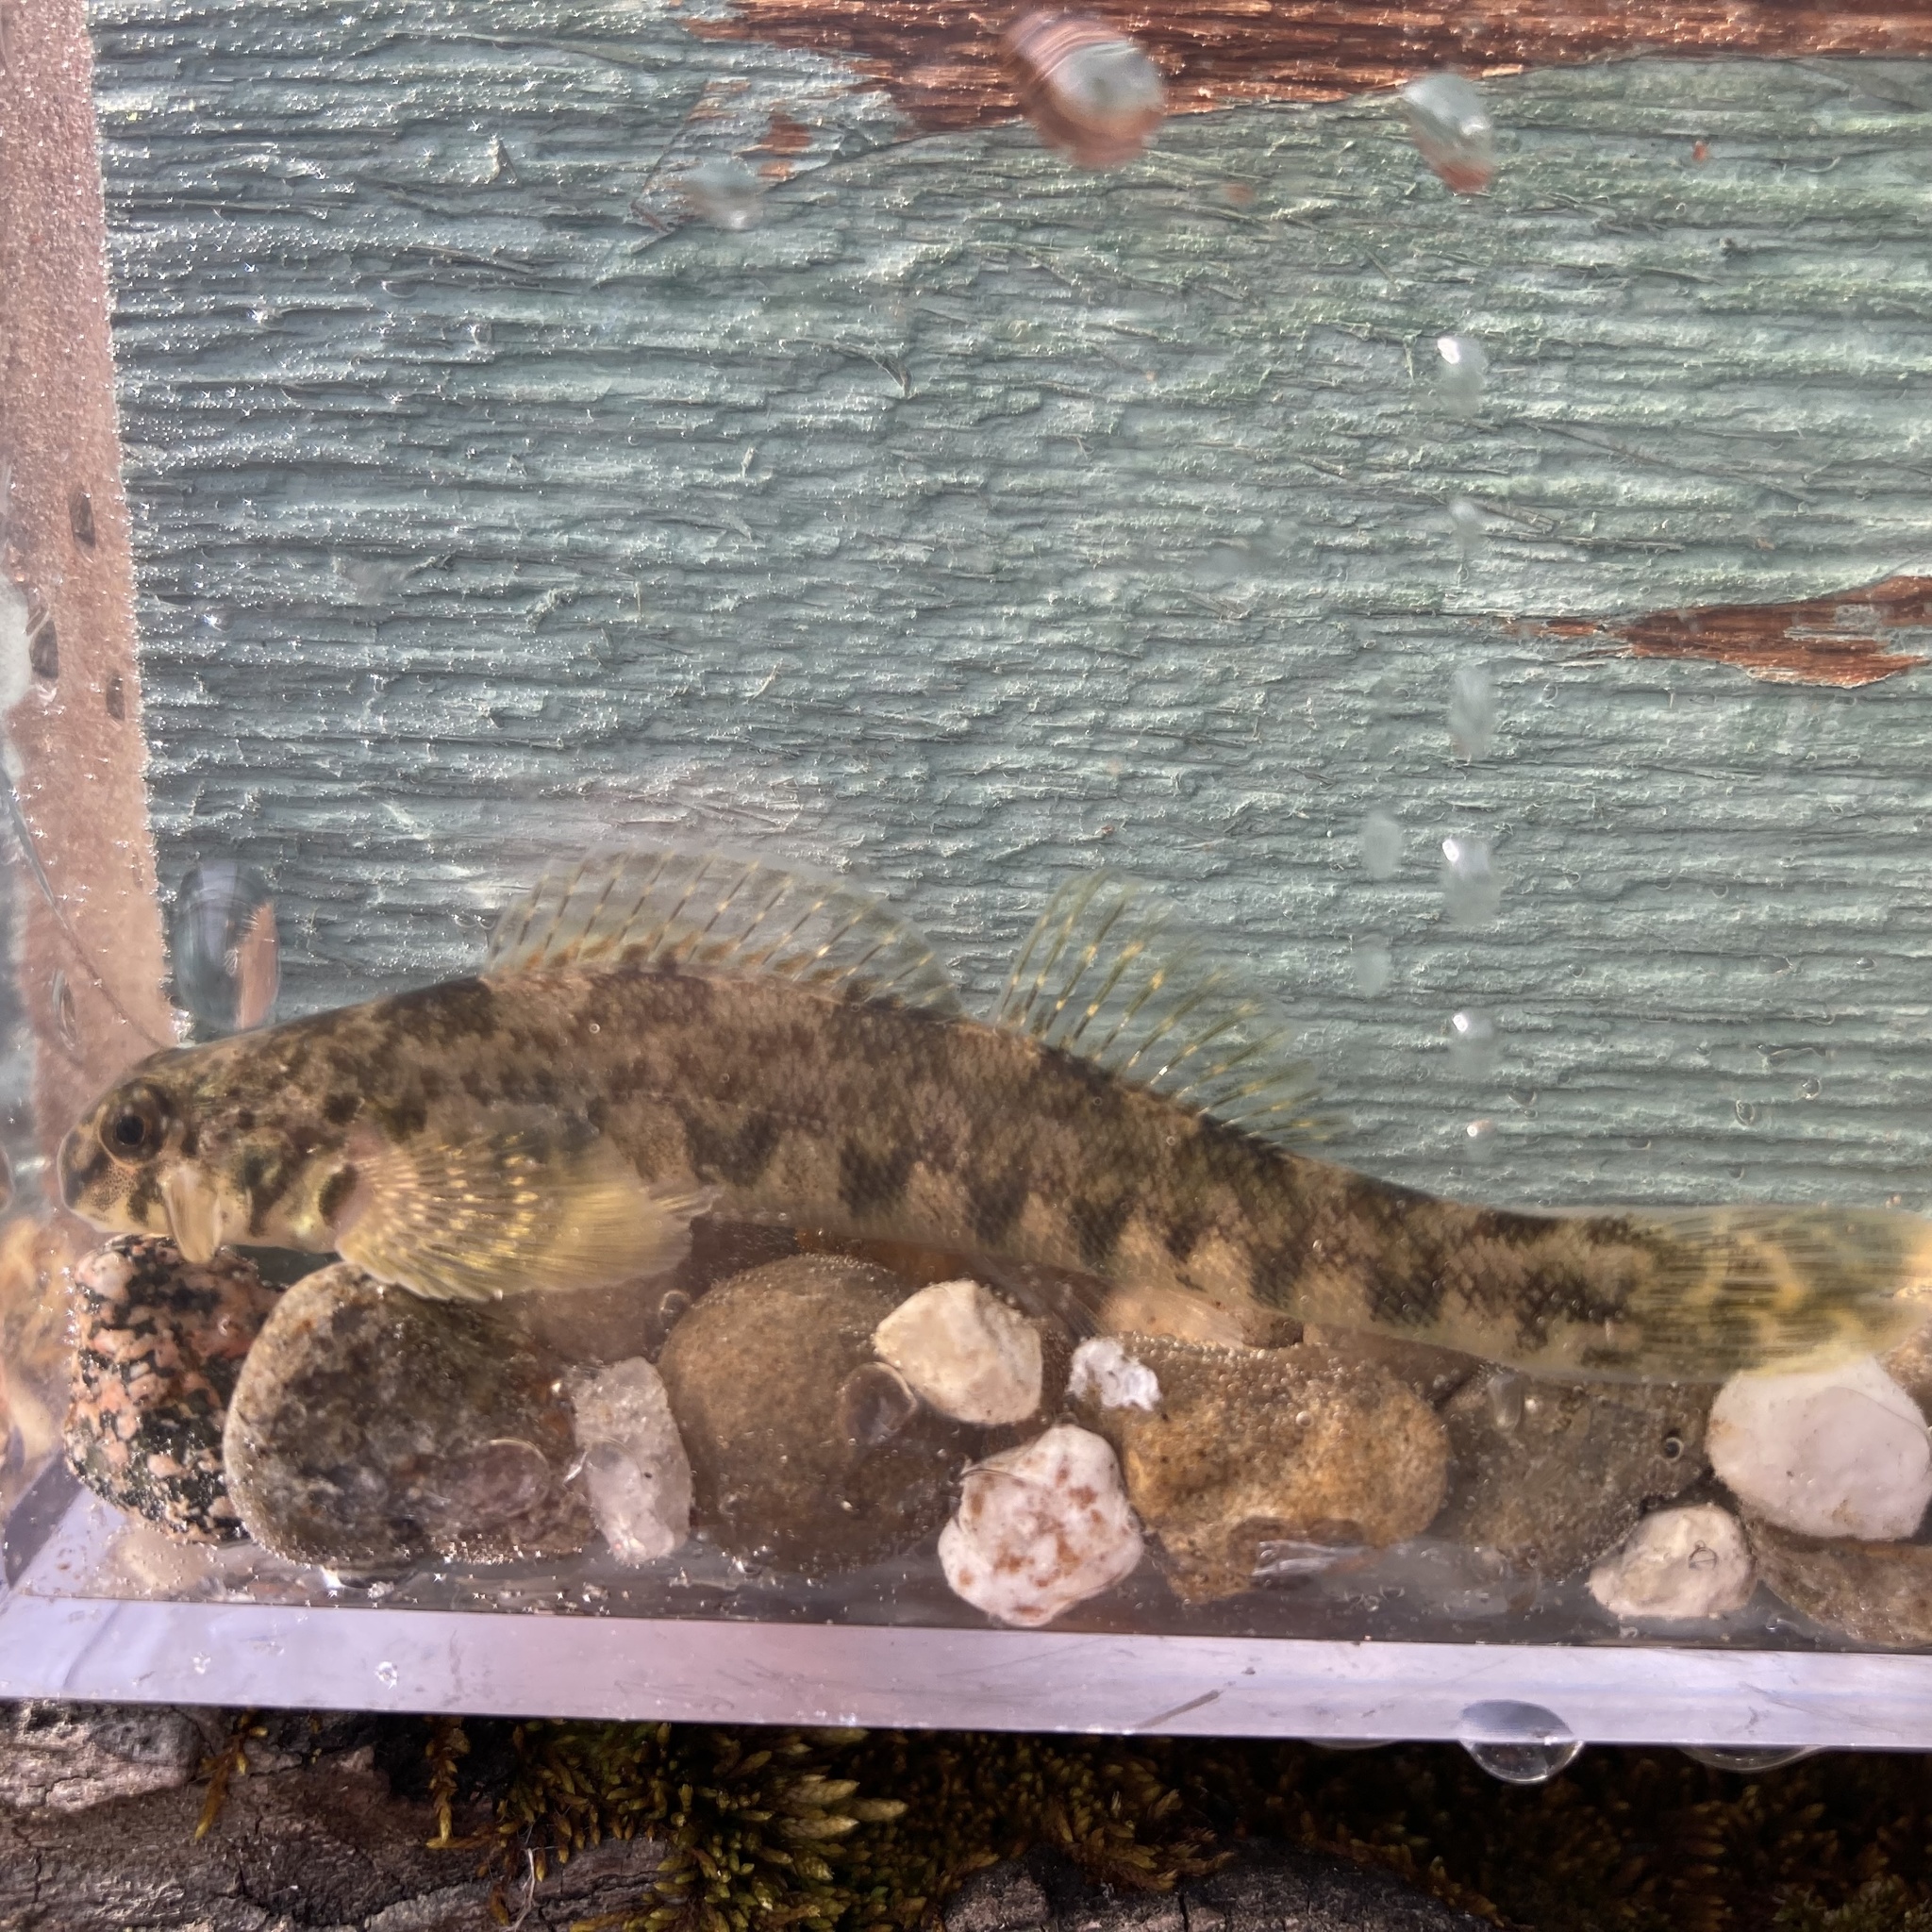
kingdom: Animalia
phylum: Chordata
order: Perciformes
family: Percidae
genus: Etheostoma
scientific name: Etheostoma blennioides
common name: Greenside darter
